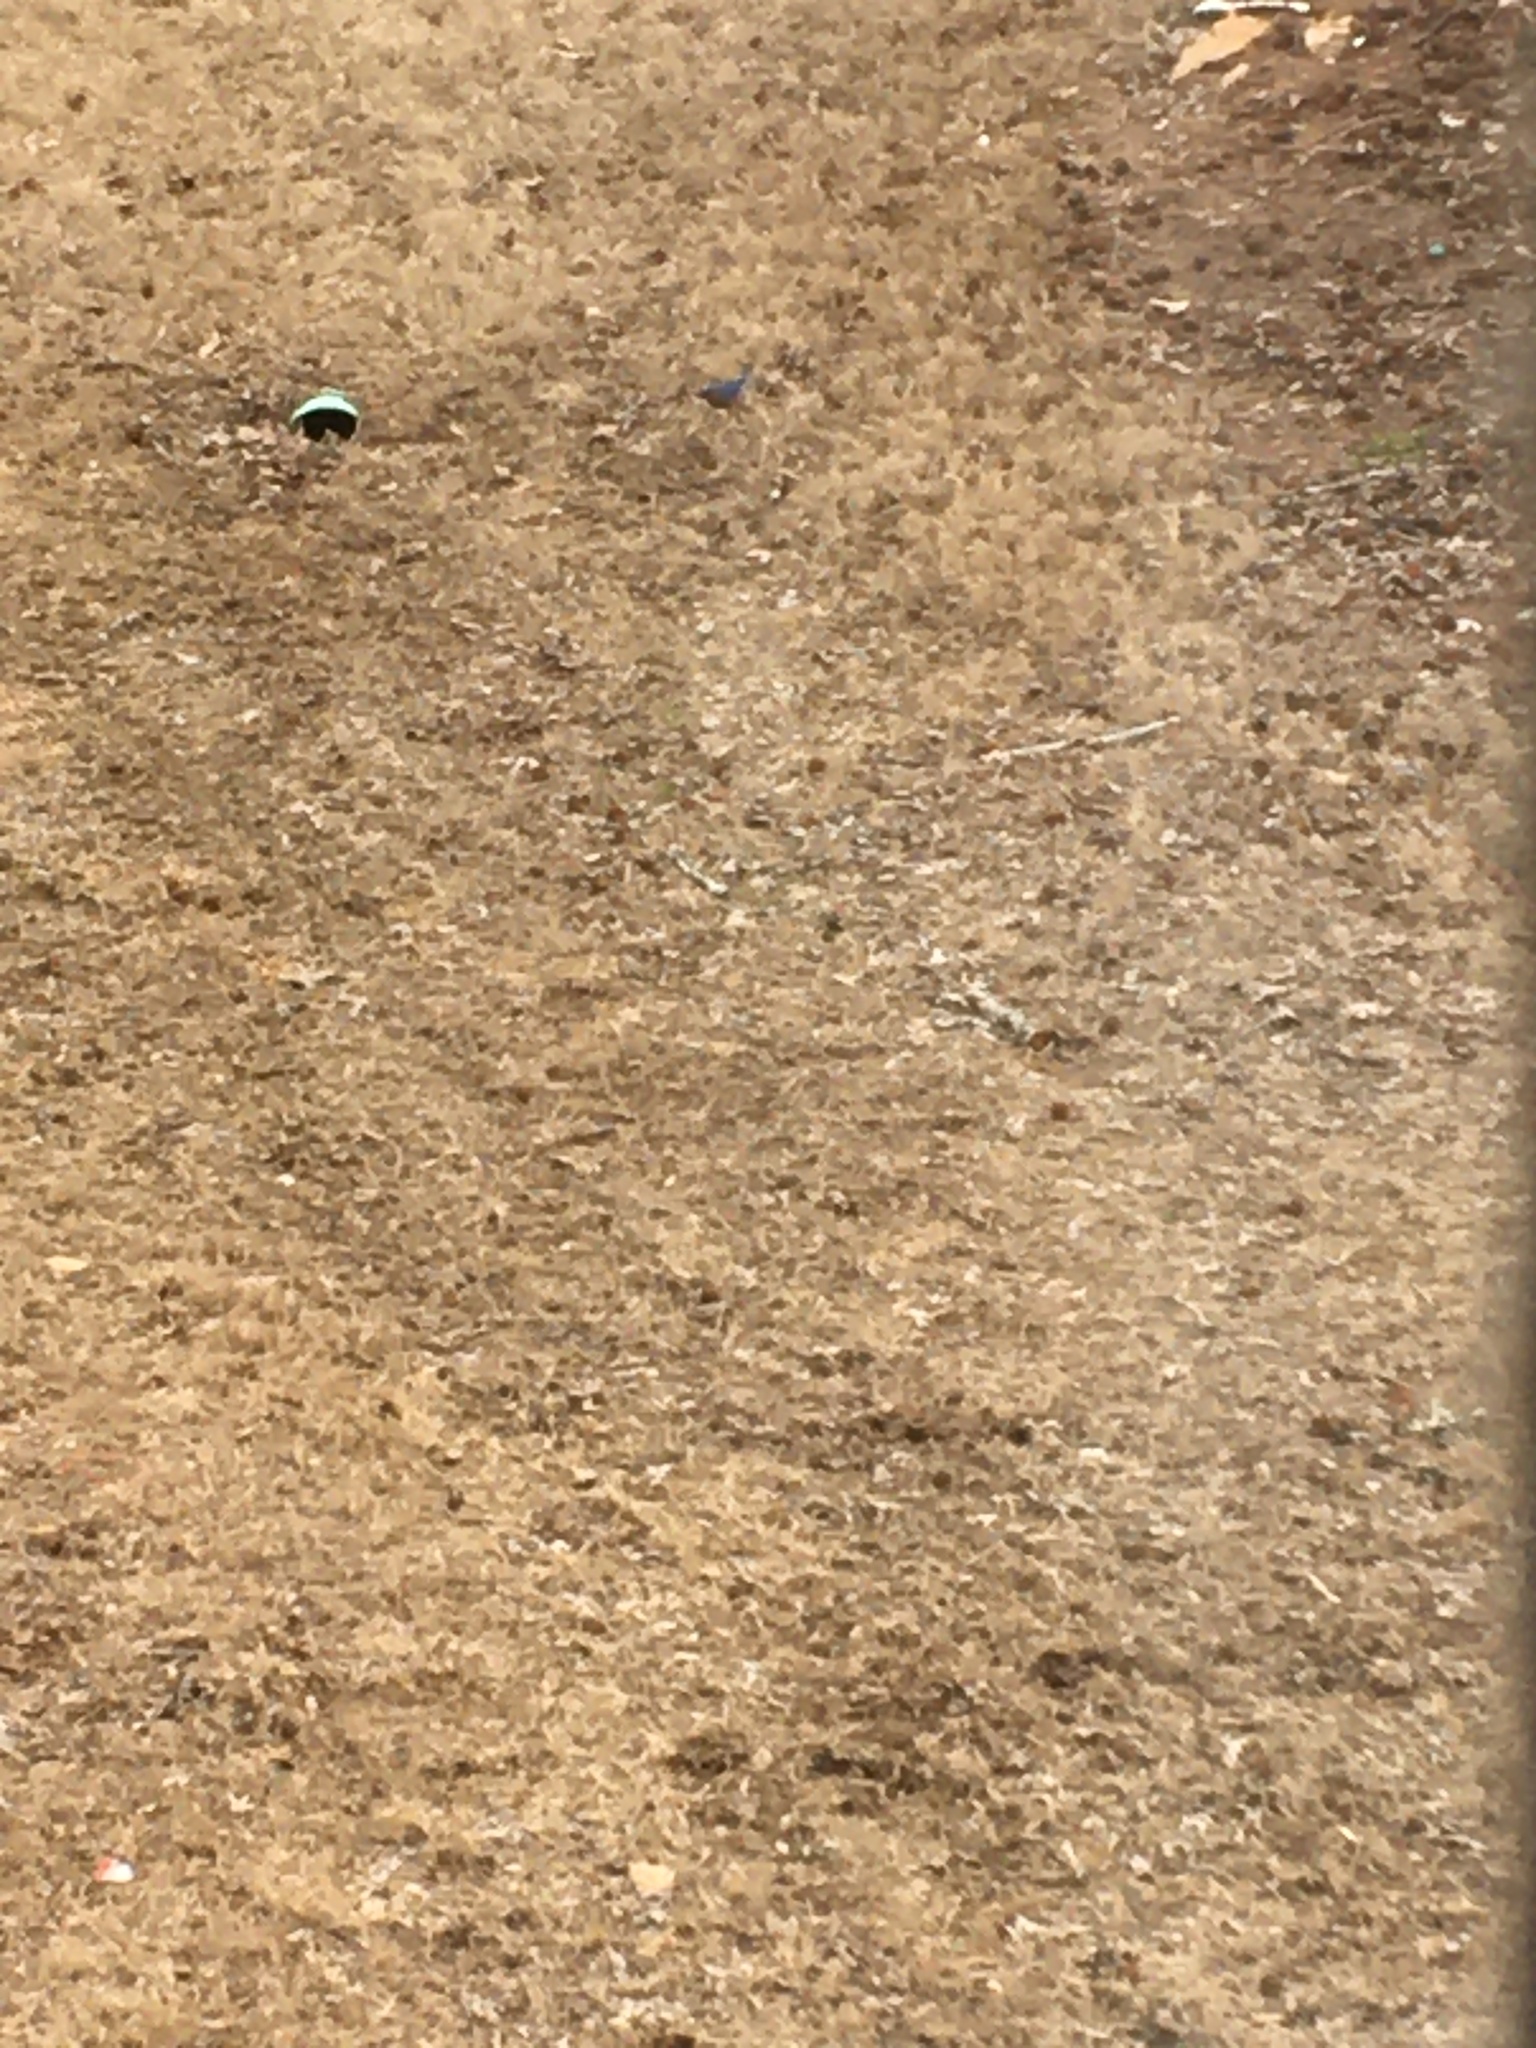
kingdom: Animalia
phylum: Chordata
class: Aves
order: Passeriformes
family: Turdidae
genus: Sialia
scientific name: Sialia sialis
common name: Eastern bluebird
